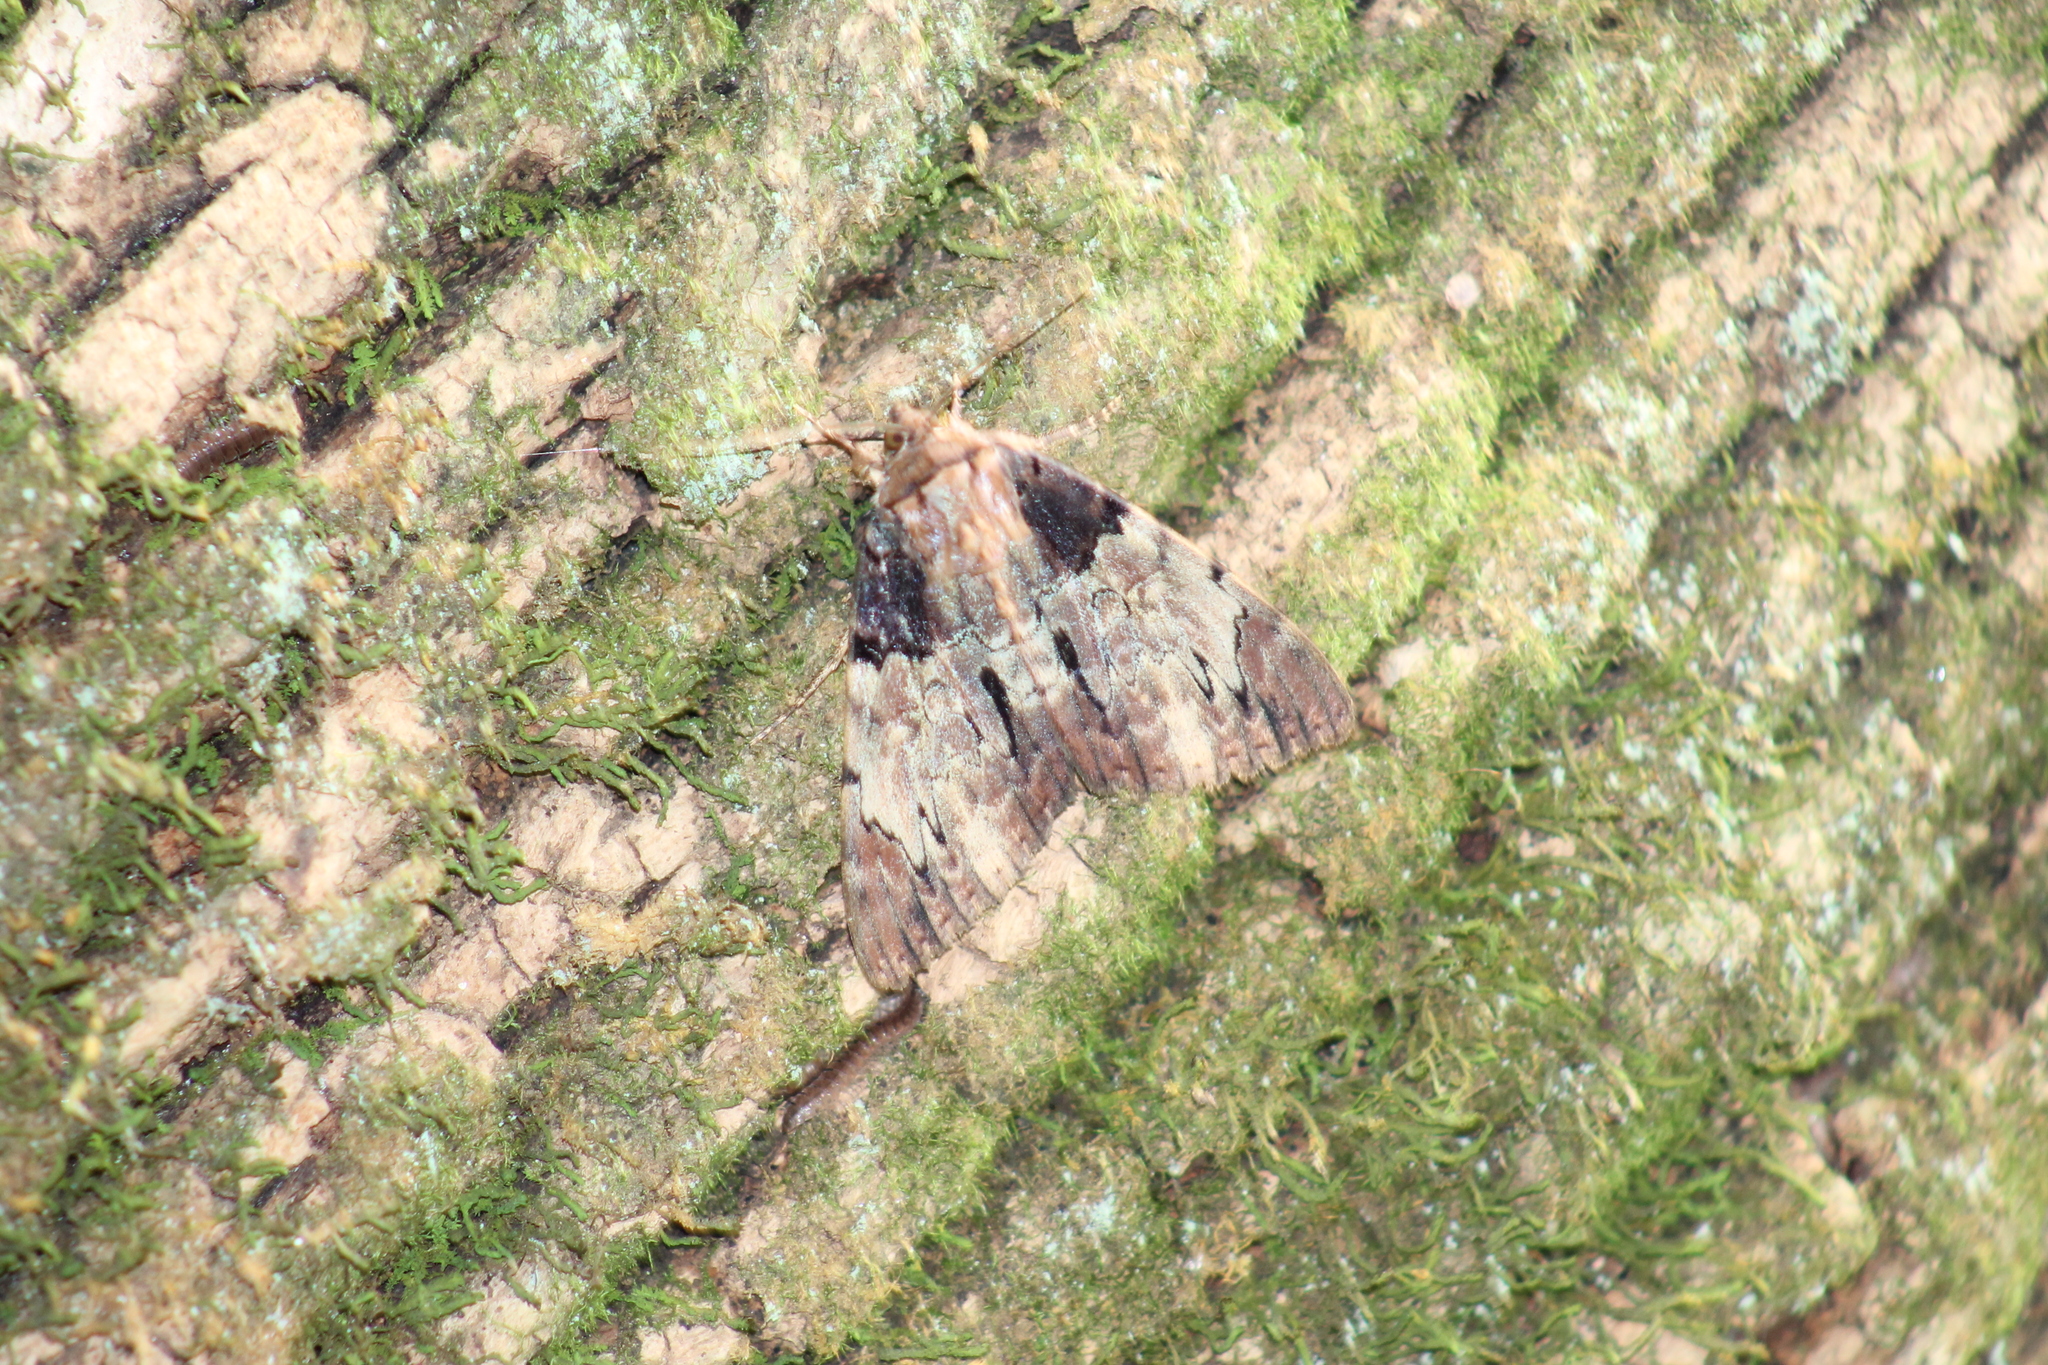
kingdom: Animalia
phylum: Arthropoda
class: Insecta
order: Lepidoptera
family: Erebidae
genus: Catocala
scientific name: Catocala nebulosa
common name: Clouded underwing
